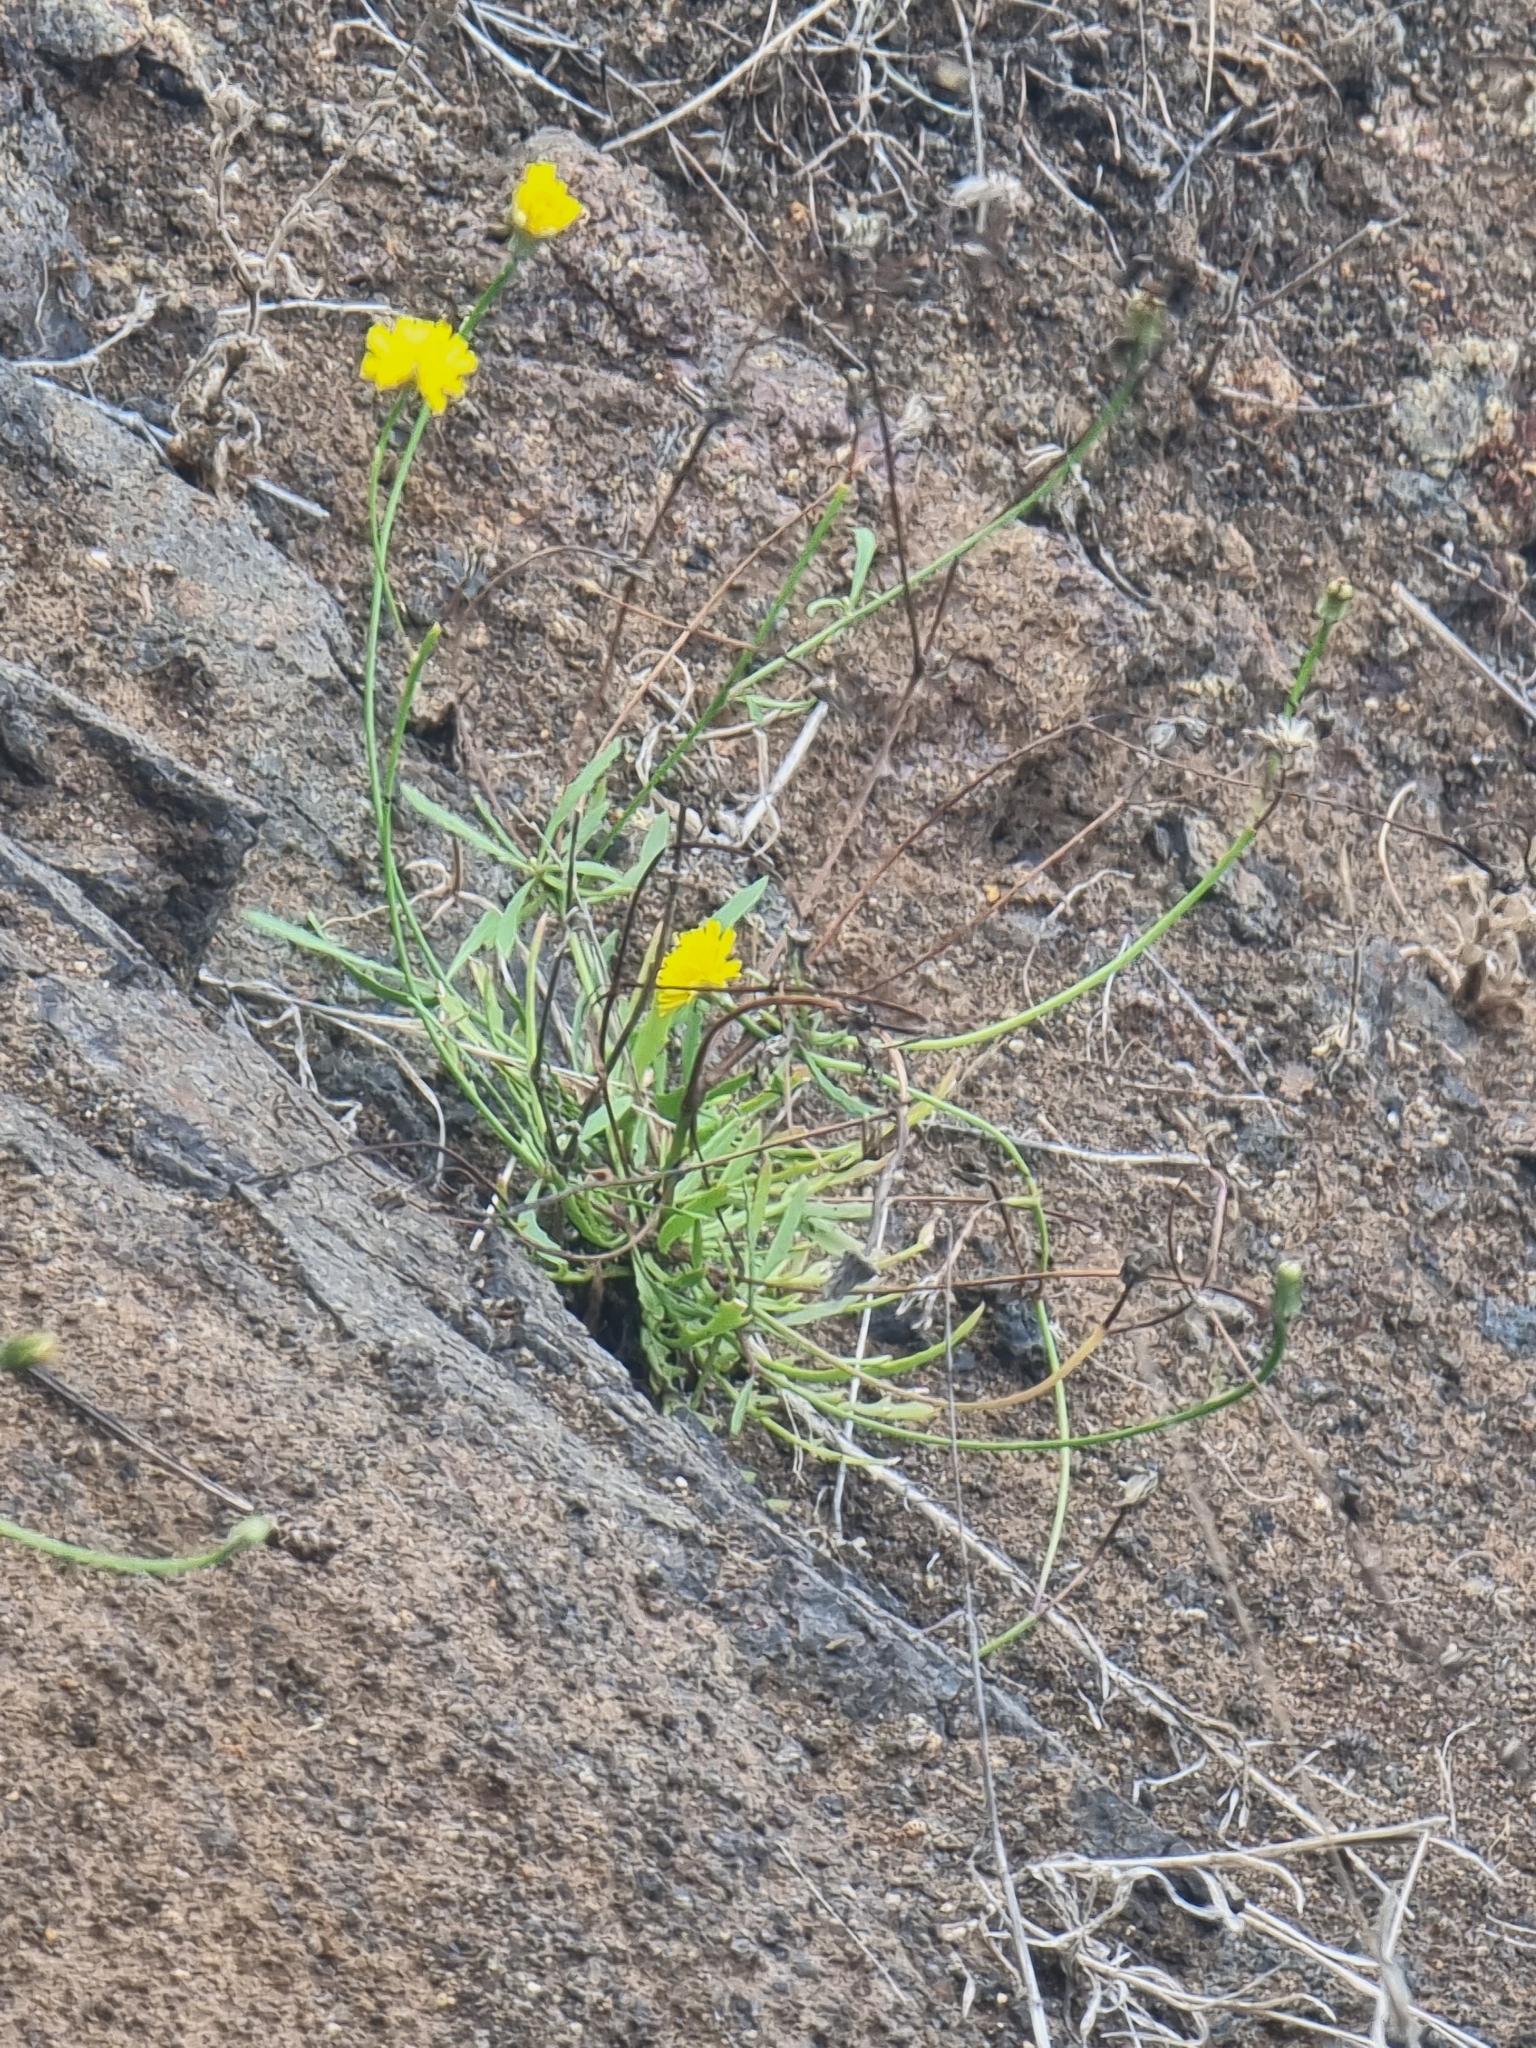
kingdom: Plantae
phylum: Tracheophyta
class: Magnoliopsida
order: Asterales
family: Asteraceae
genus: Tolpis
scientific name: Tolpis succulenta
